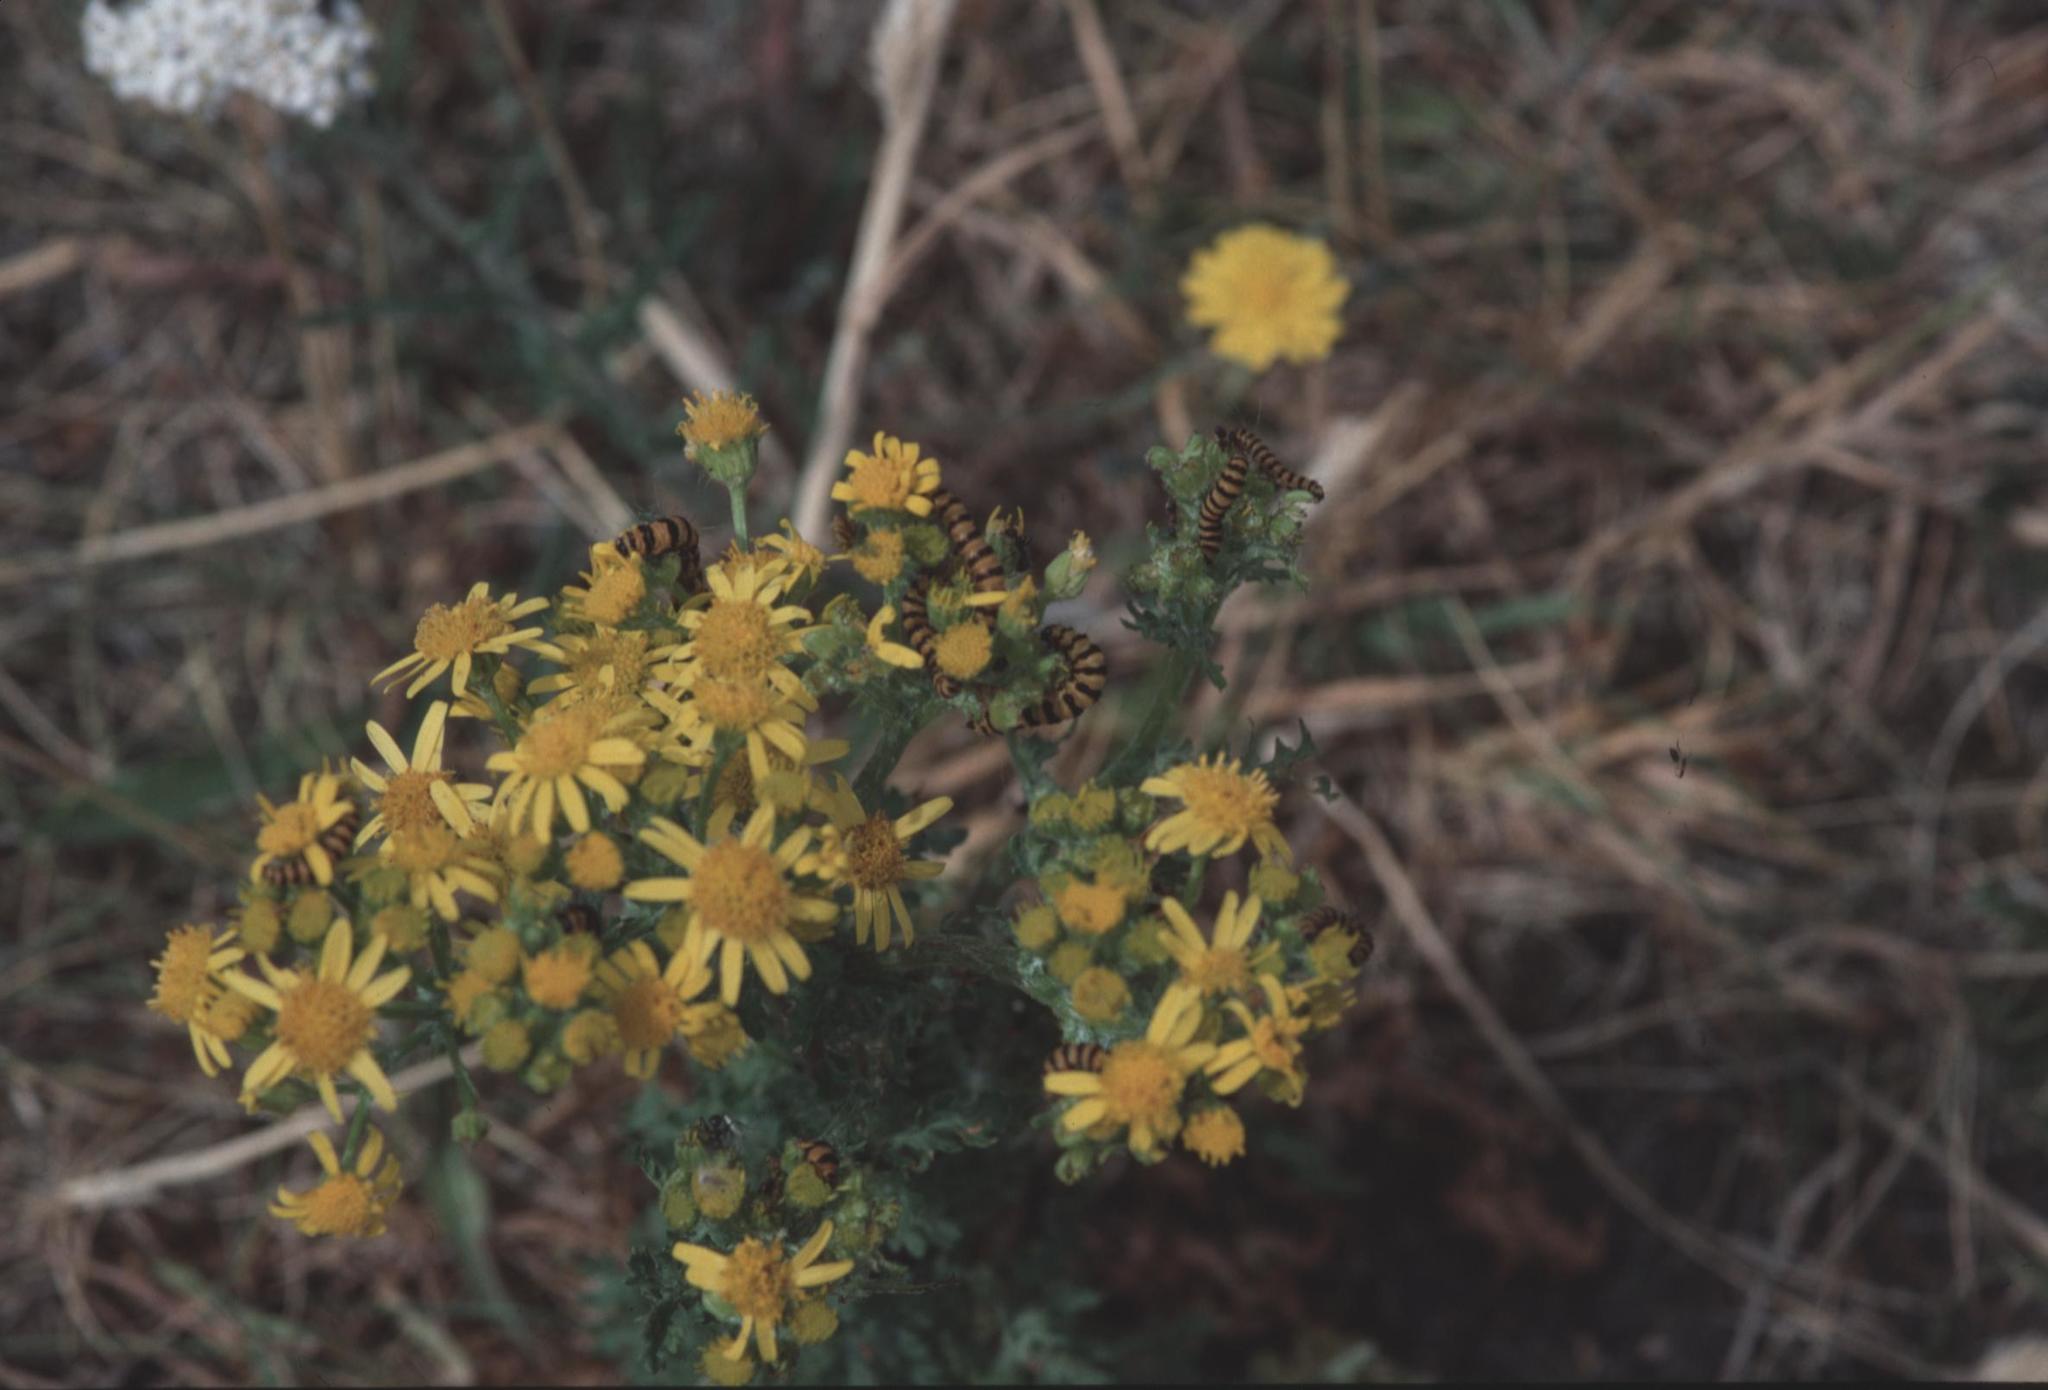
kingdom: Animalia
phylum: Arthropoda
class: Insecta
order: Lepidoptera
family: Erebidae
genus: Tyria
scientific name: Tyria jacobaeae
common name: Cinnabar
